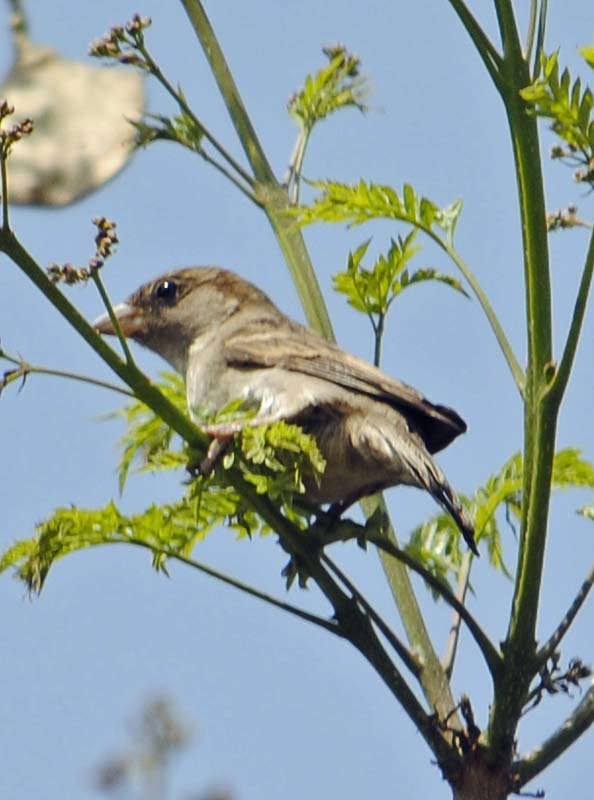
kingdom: Animalia
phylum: Chordata
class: Aves
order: Passeriformes
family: Passeridae
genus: Passer
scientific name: Passer domesticus
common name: House sparrow
